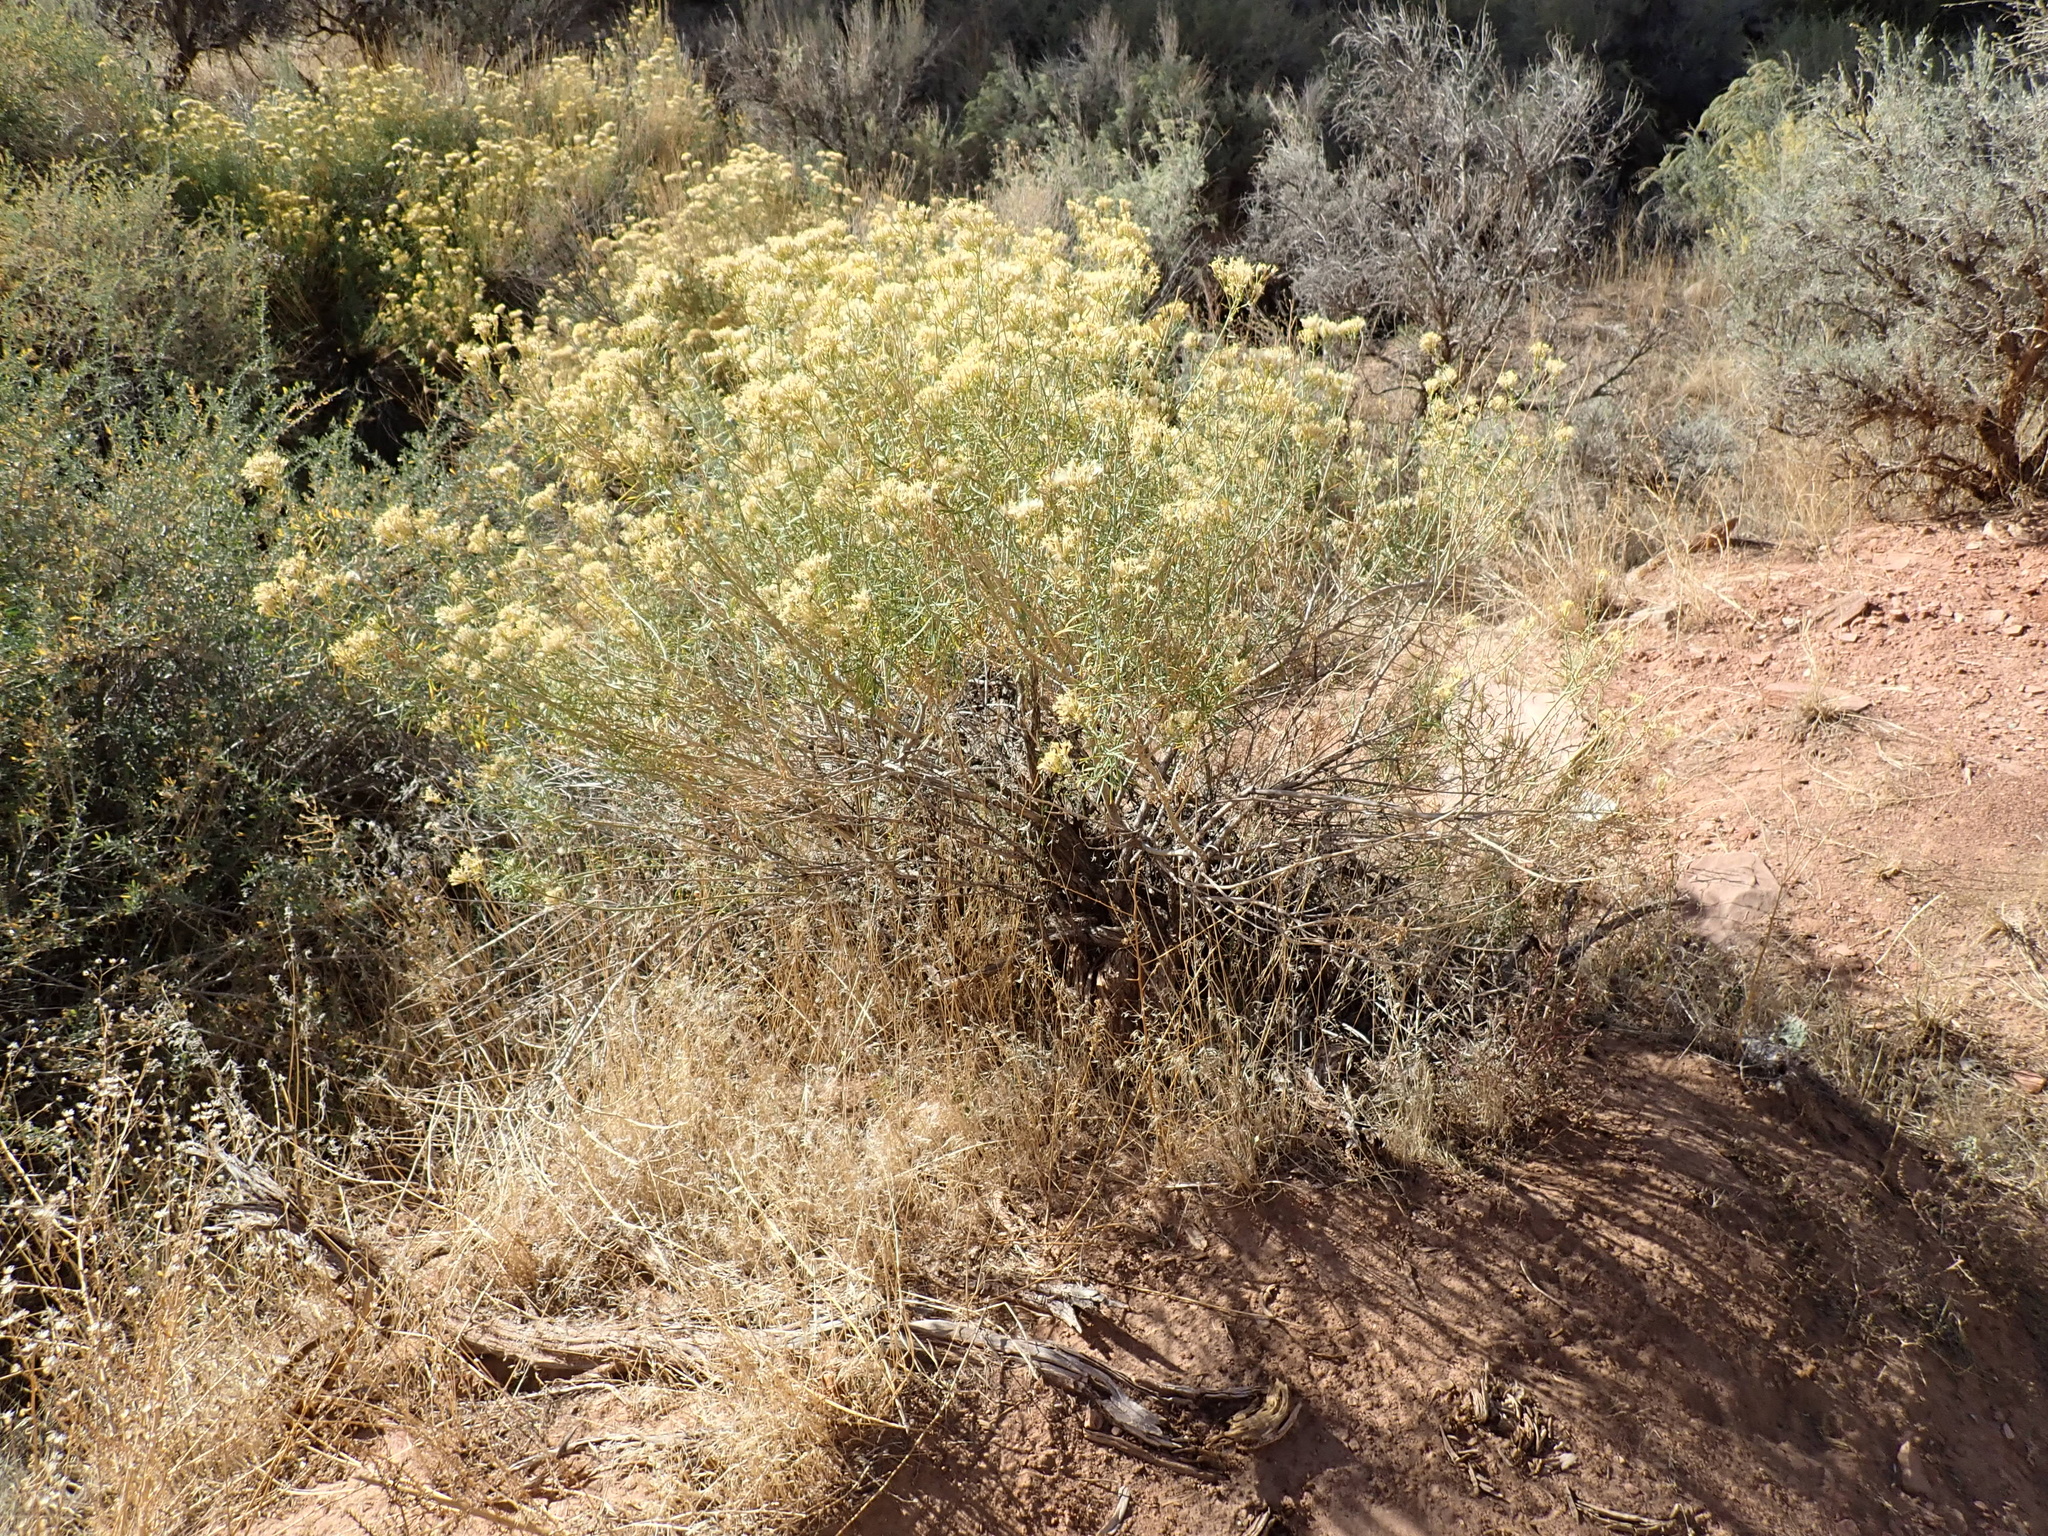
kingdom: Plantae
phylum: Tracheophyta
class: Magnoliopsida
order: Asterales
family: Asteraceae
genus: Ericameria
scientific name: Ericameria nauseosa
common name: Rubber rabbitbrush
